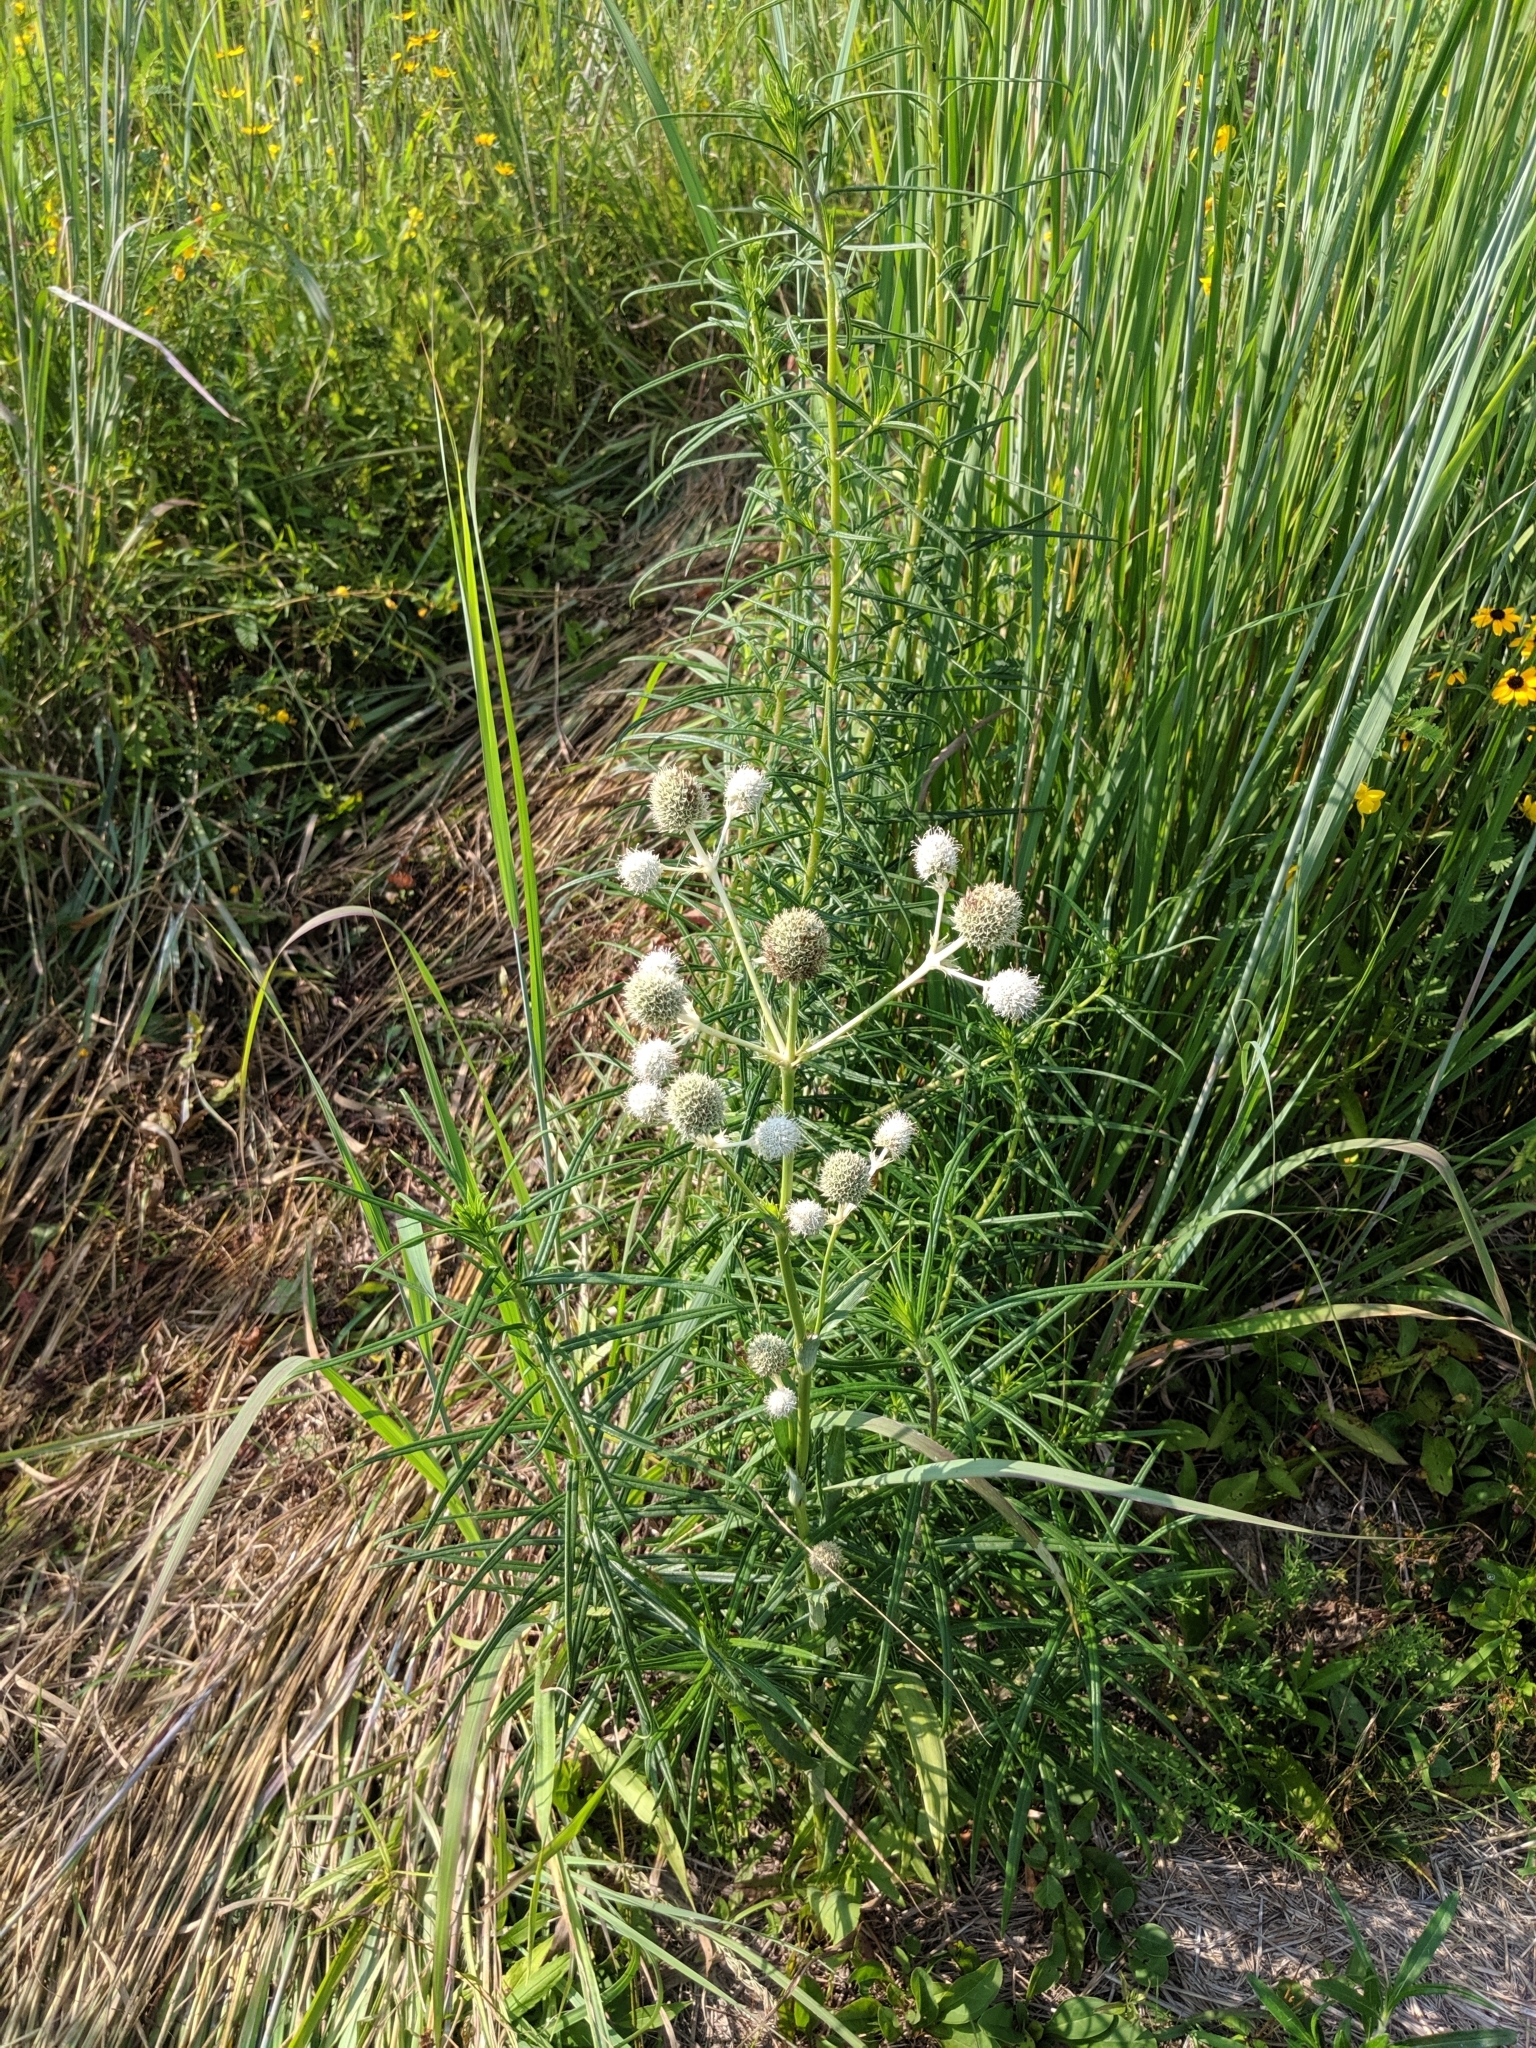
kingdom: Plantae
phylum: Tracheophyta
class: Magnoliopsida
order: Apiales
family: Apiaceae
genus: Eryngium
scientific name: Eryngium yuccifolium
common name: Button eryngo
